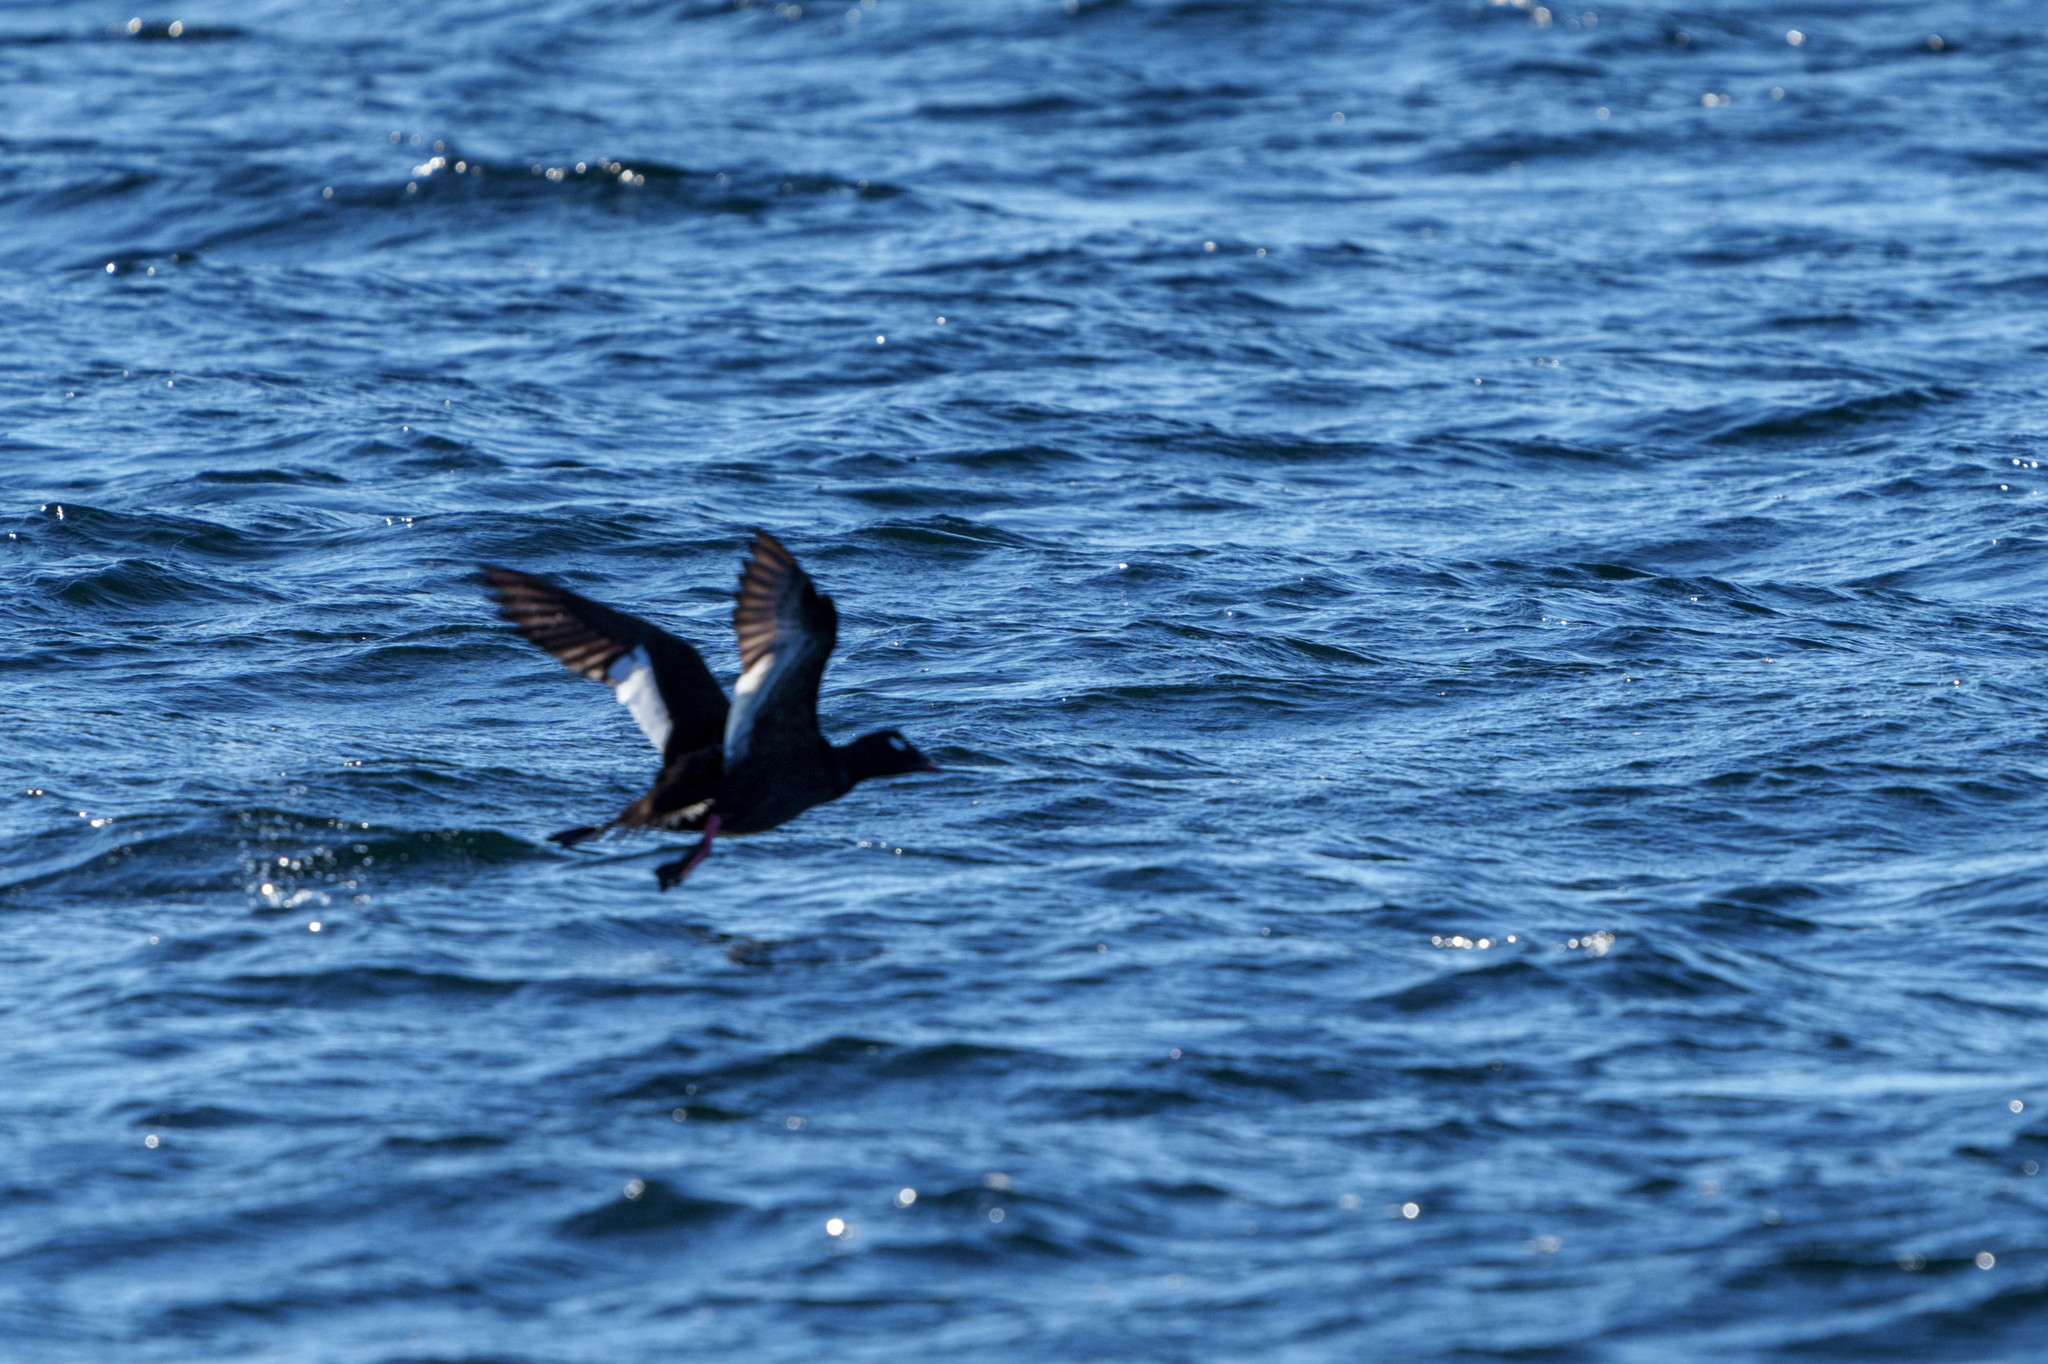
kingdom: Animalia
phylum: Chordata
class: Aves
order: Anseriformes
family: Anatidae
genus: Melanitta
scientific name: Melanitta deglandi
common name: White-winged scoter
